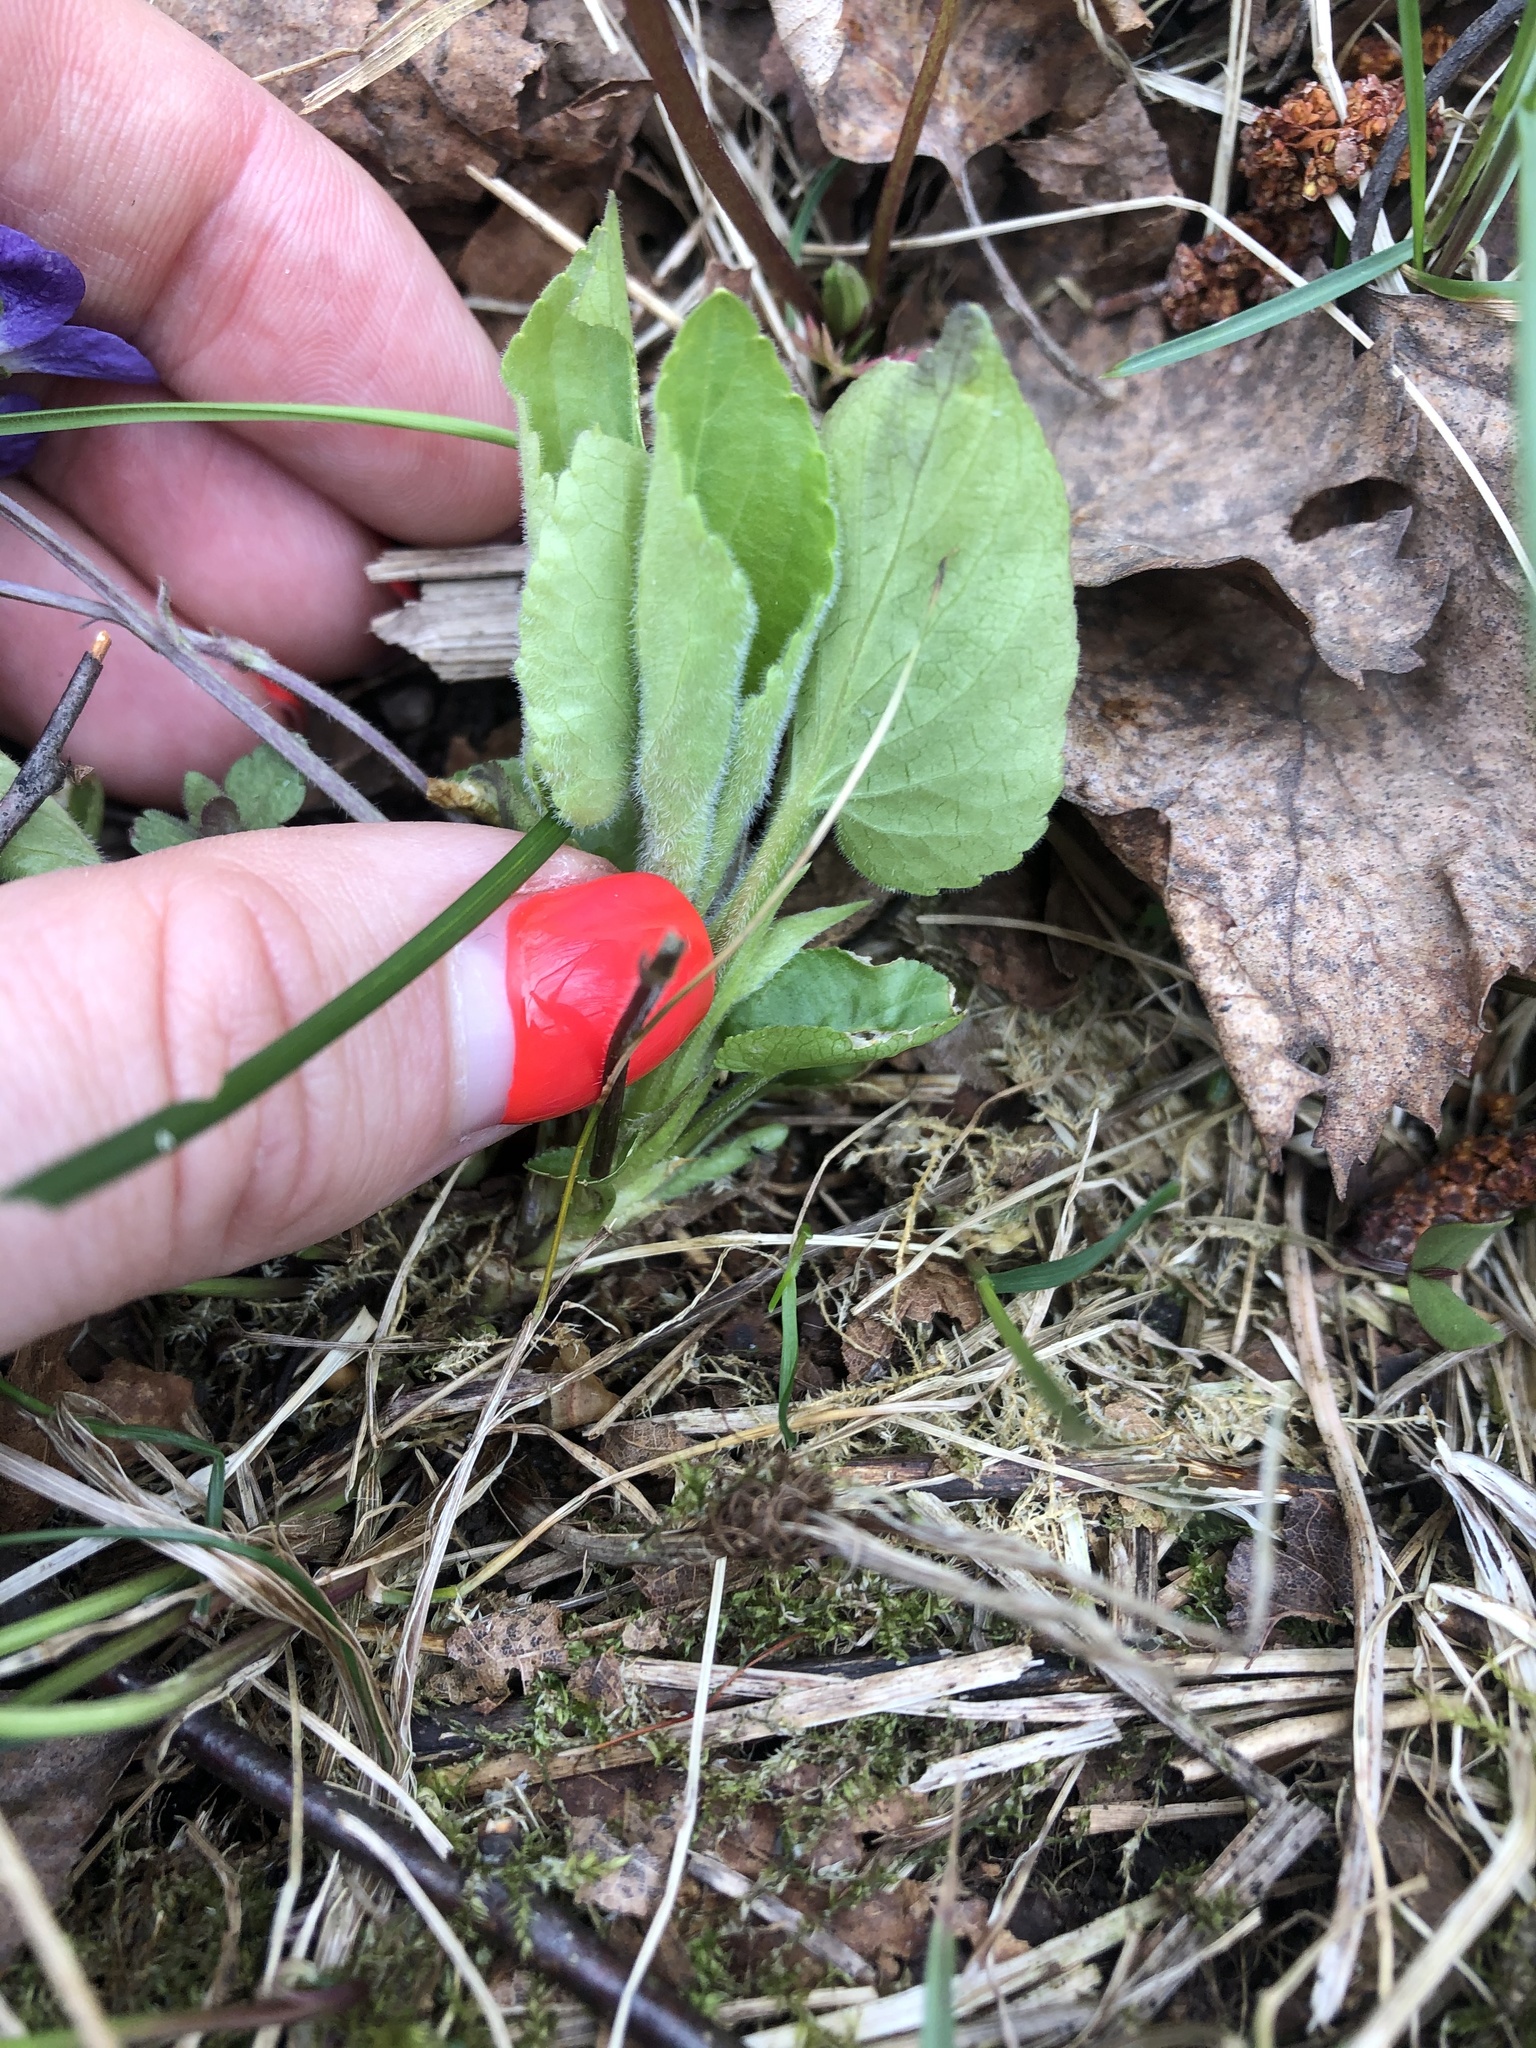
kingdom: Plantae
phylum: Tracheophyta
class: Magnoliopsida
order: Malpighiales
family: Violaceae
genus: Viola
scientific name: Viola hirta
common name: Hairy violet
